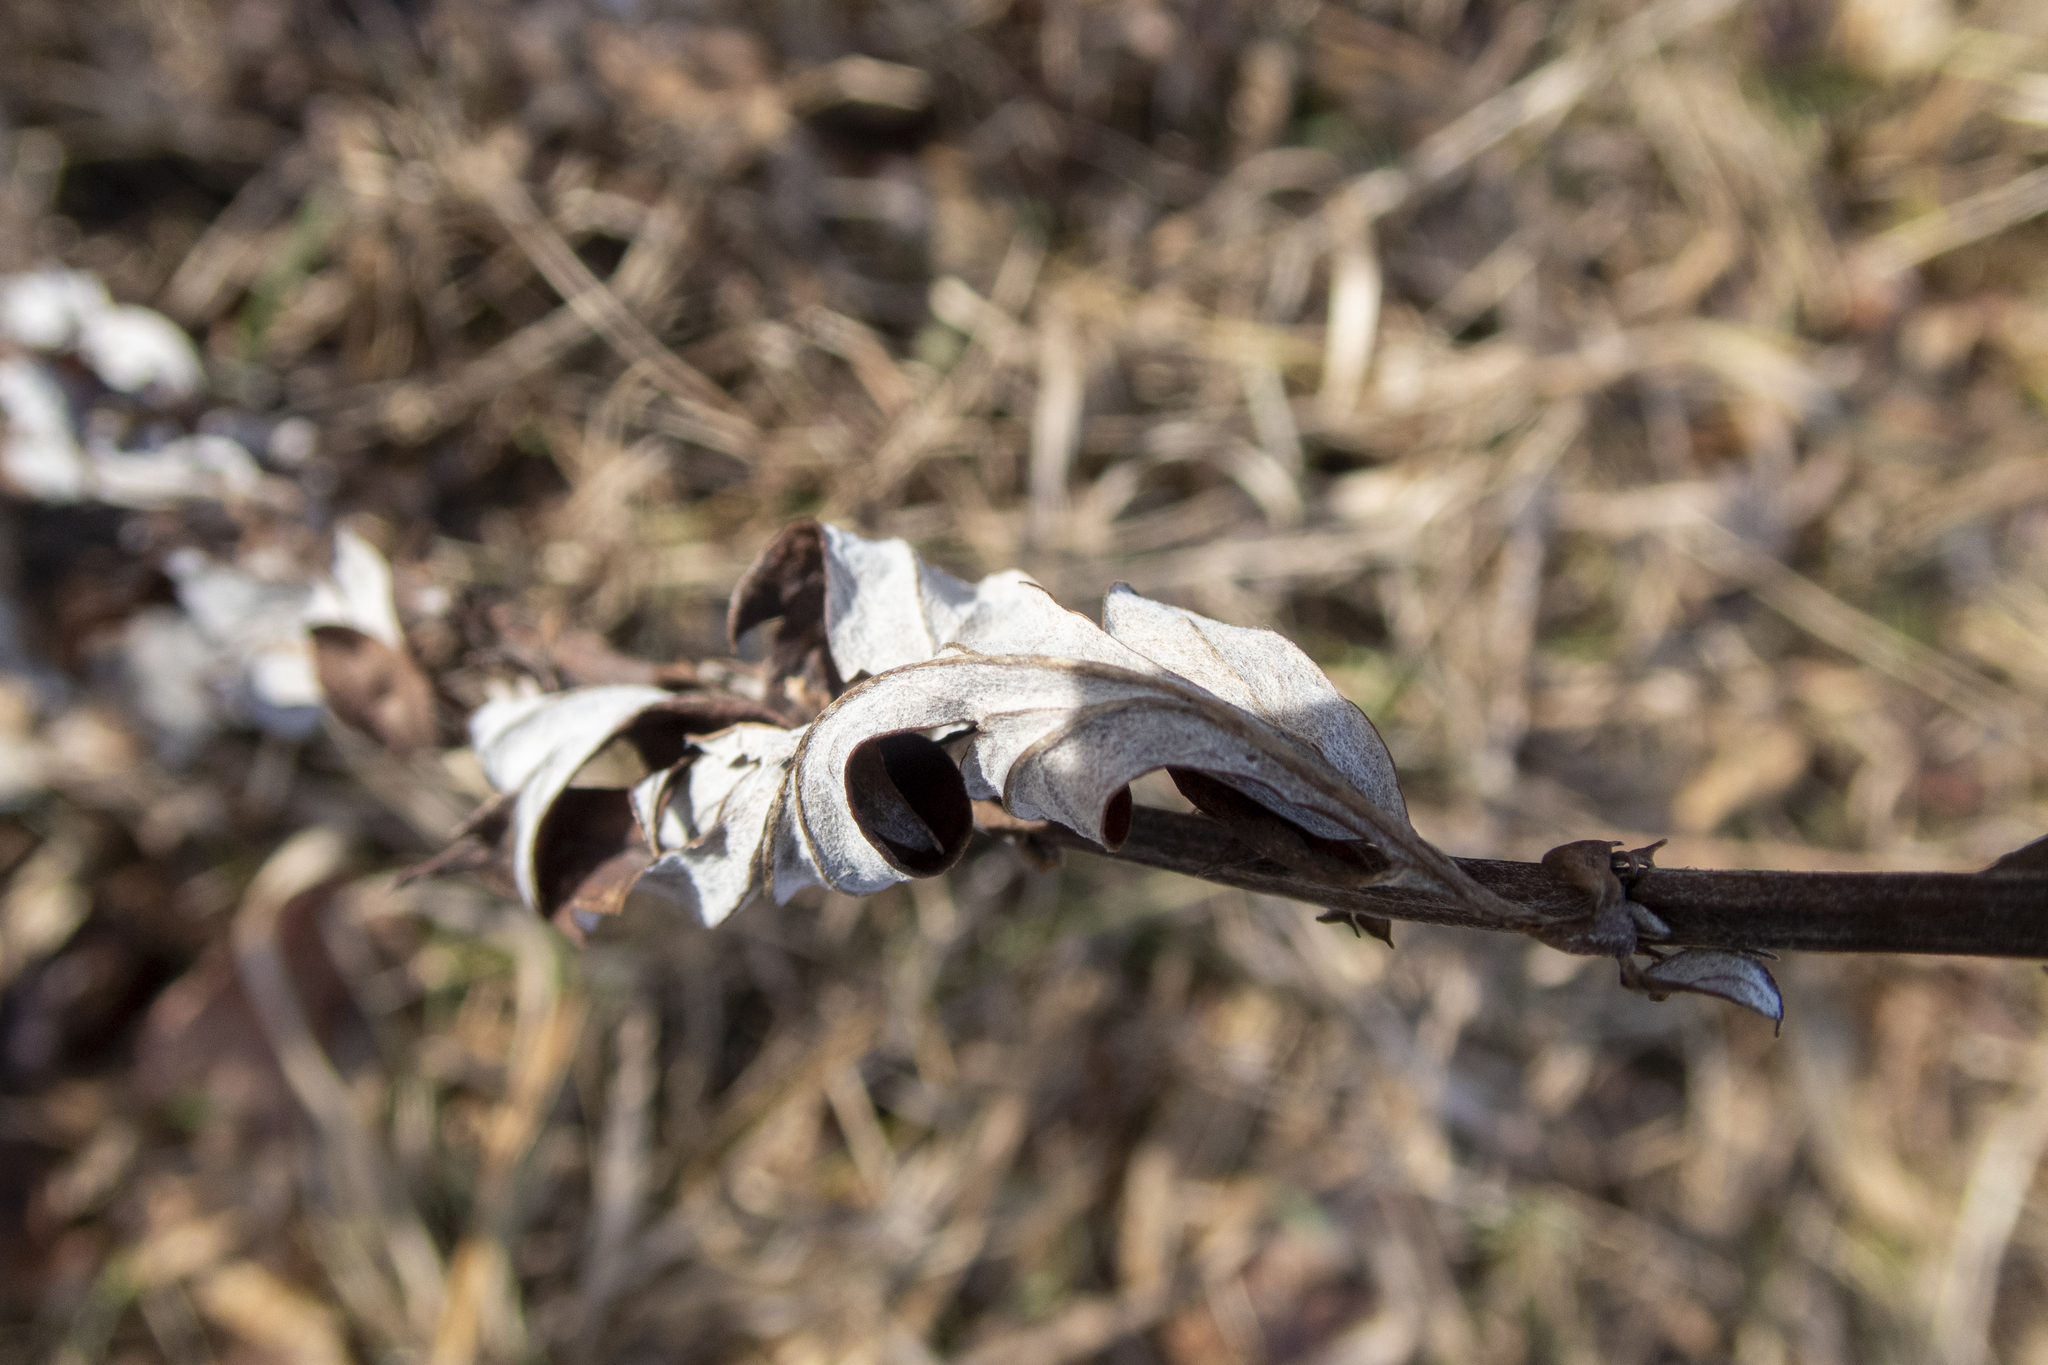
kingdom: Plantae
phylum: Tracheophyta
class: Magnoliopsida
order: Asterales
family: Asteraceae
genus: Artemisia
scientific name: Artemisia vulgaris
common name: Mugwort
